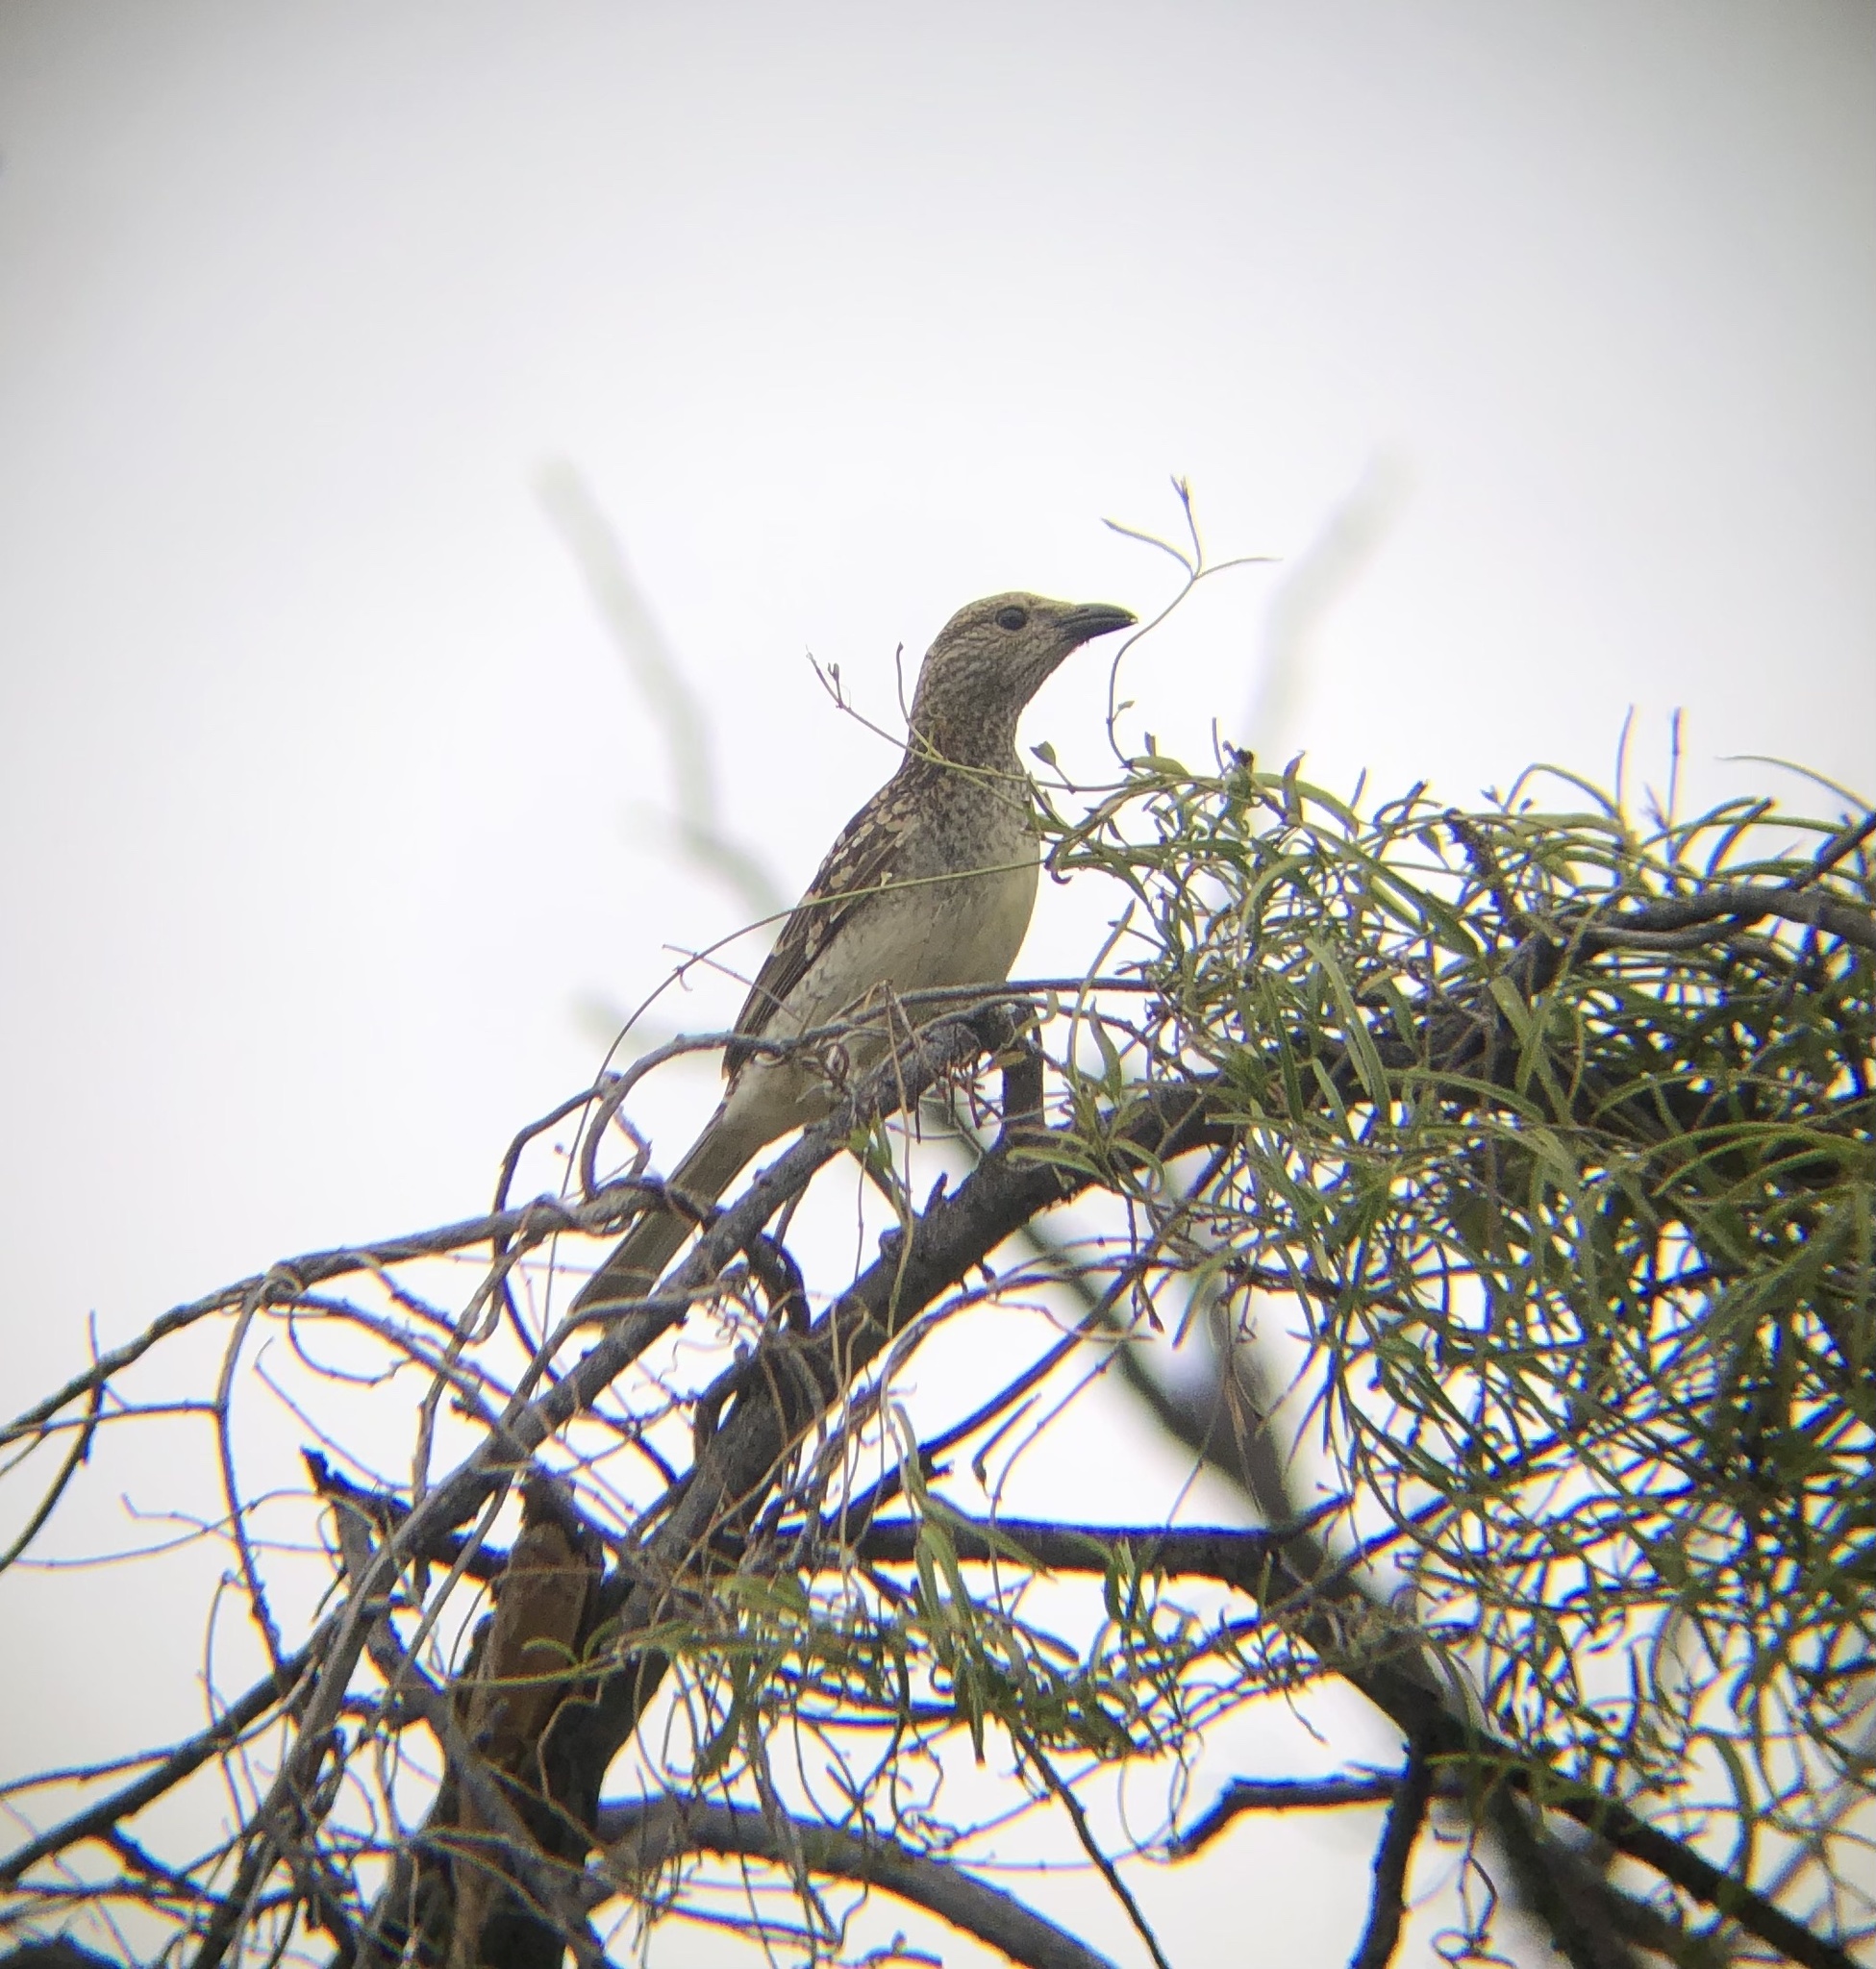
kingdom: Animalia
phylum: Chordata
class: Aves
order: Passeriformes
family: Ptilonorhynchidae
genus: Chlamydera
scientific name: Chlamydera maculata
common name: Spotted bowerbird
